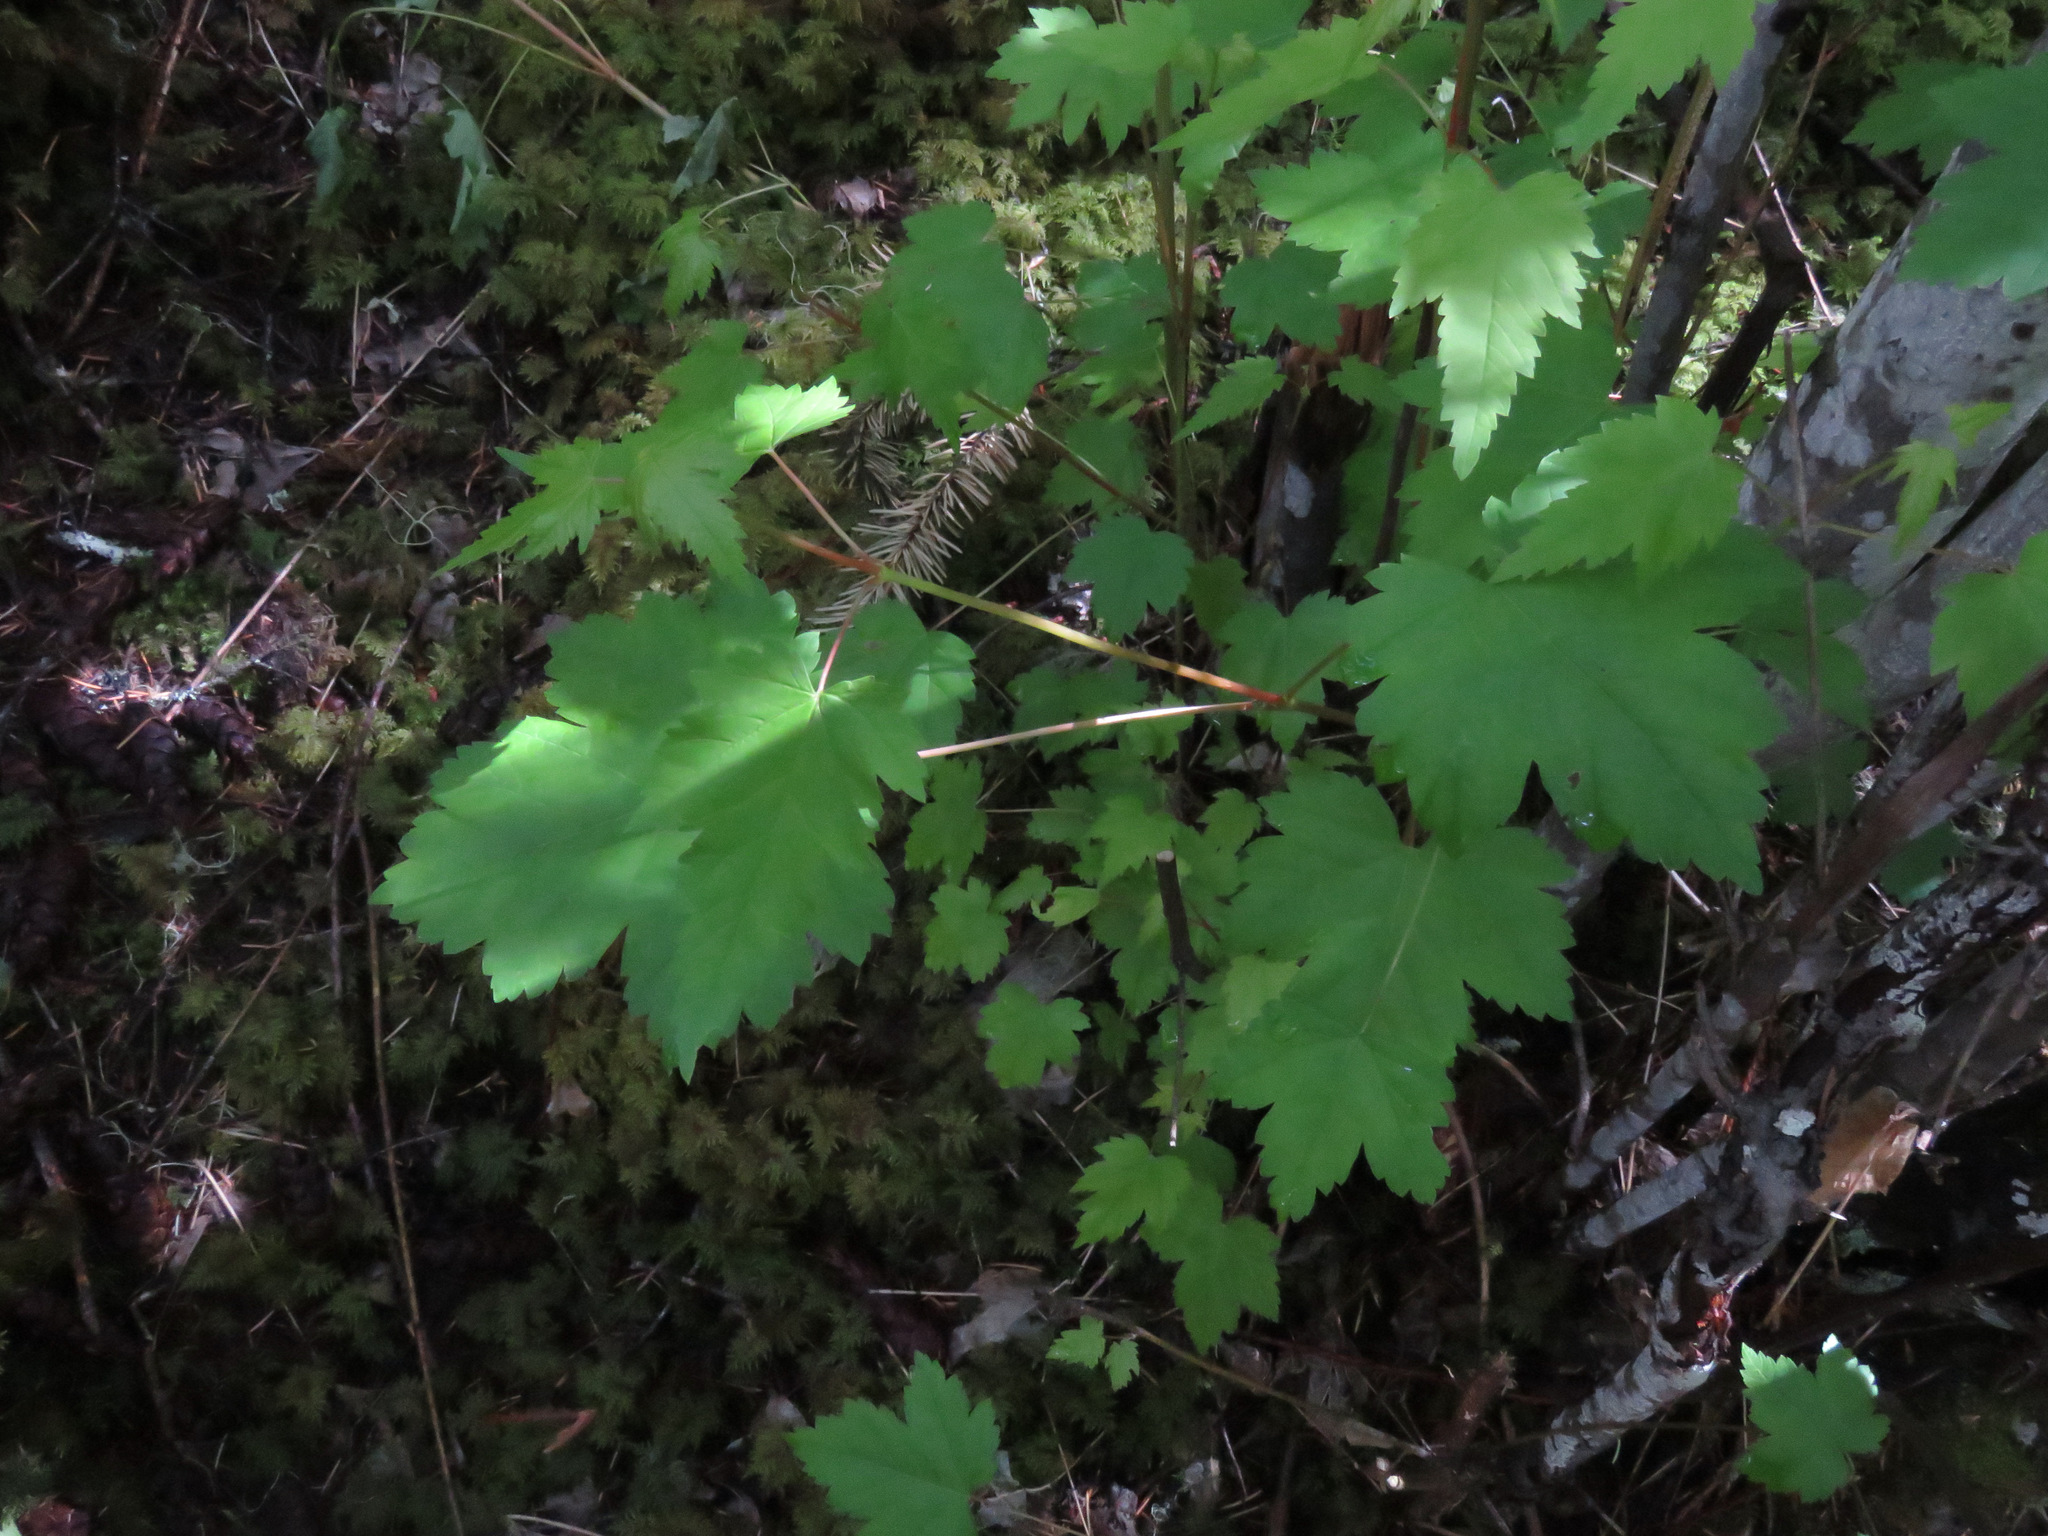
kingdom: Plantae
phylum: Tracheophyta
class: Magnoliopsida
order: Sapindales
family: Sapindaceae
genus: Acer
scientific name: Acer glabrum
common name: Rocky mountain maple
